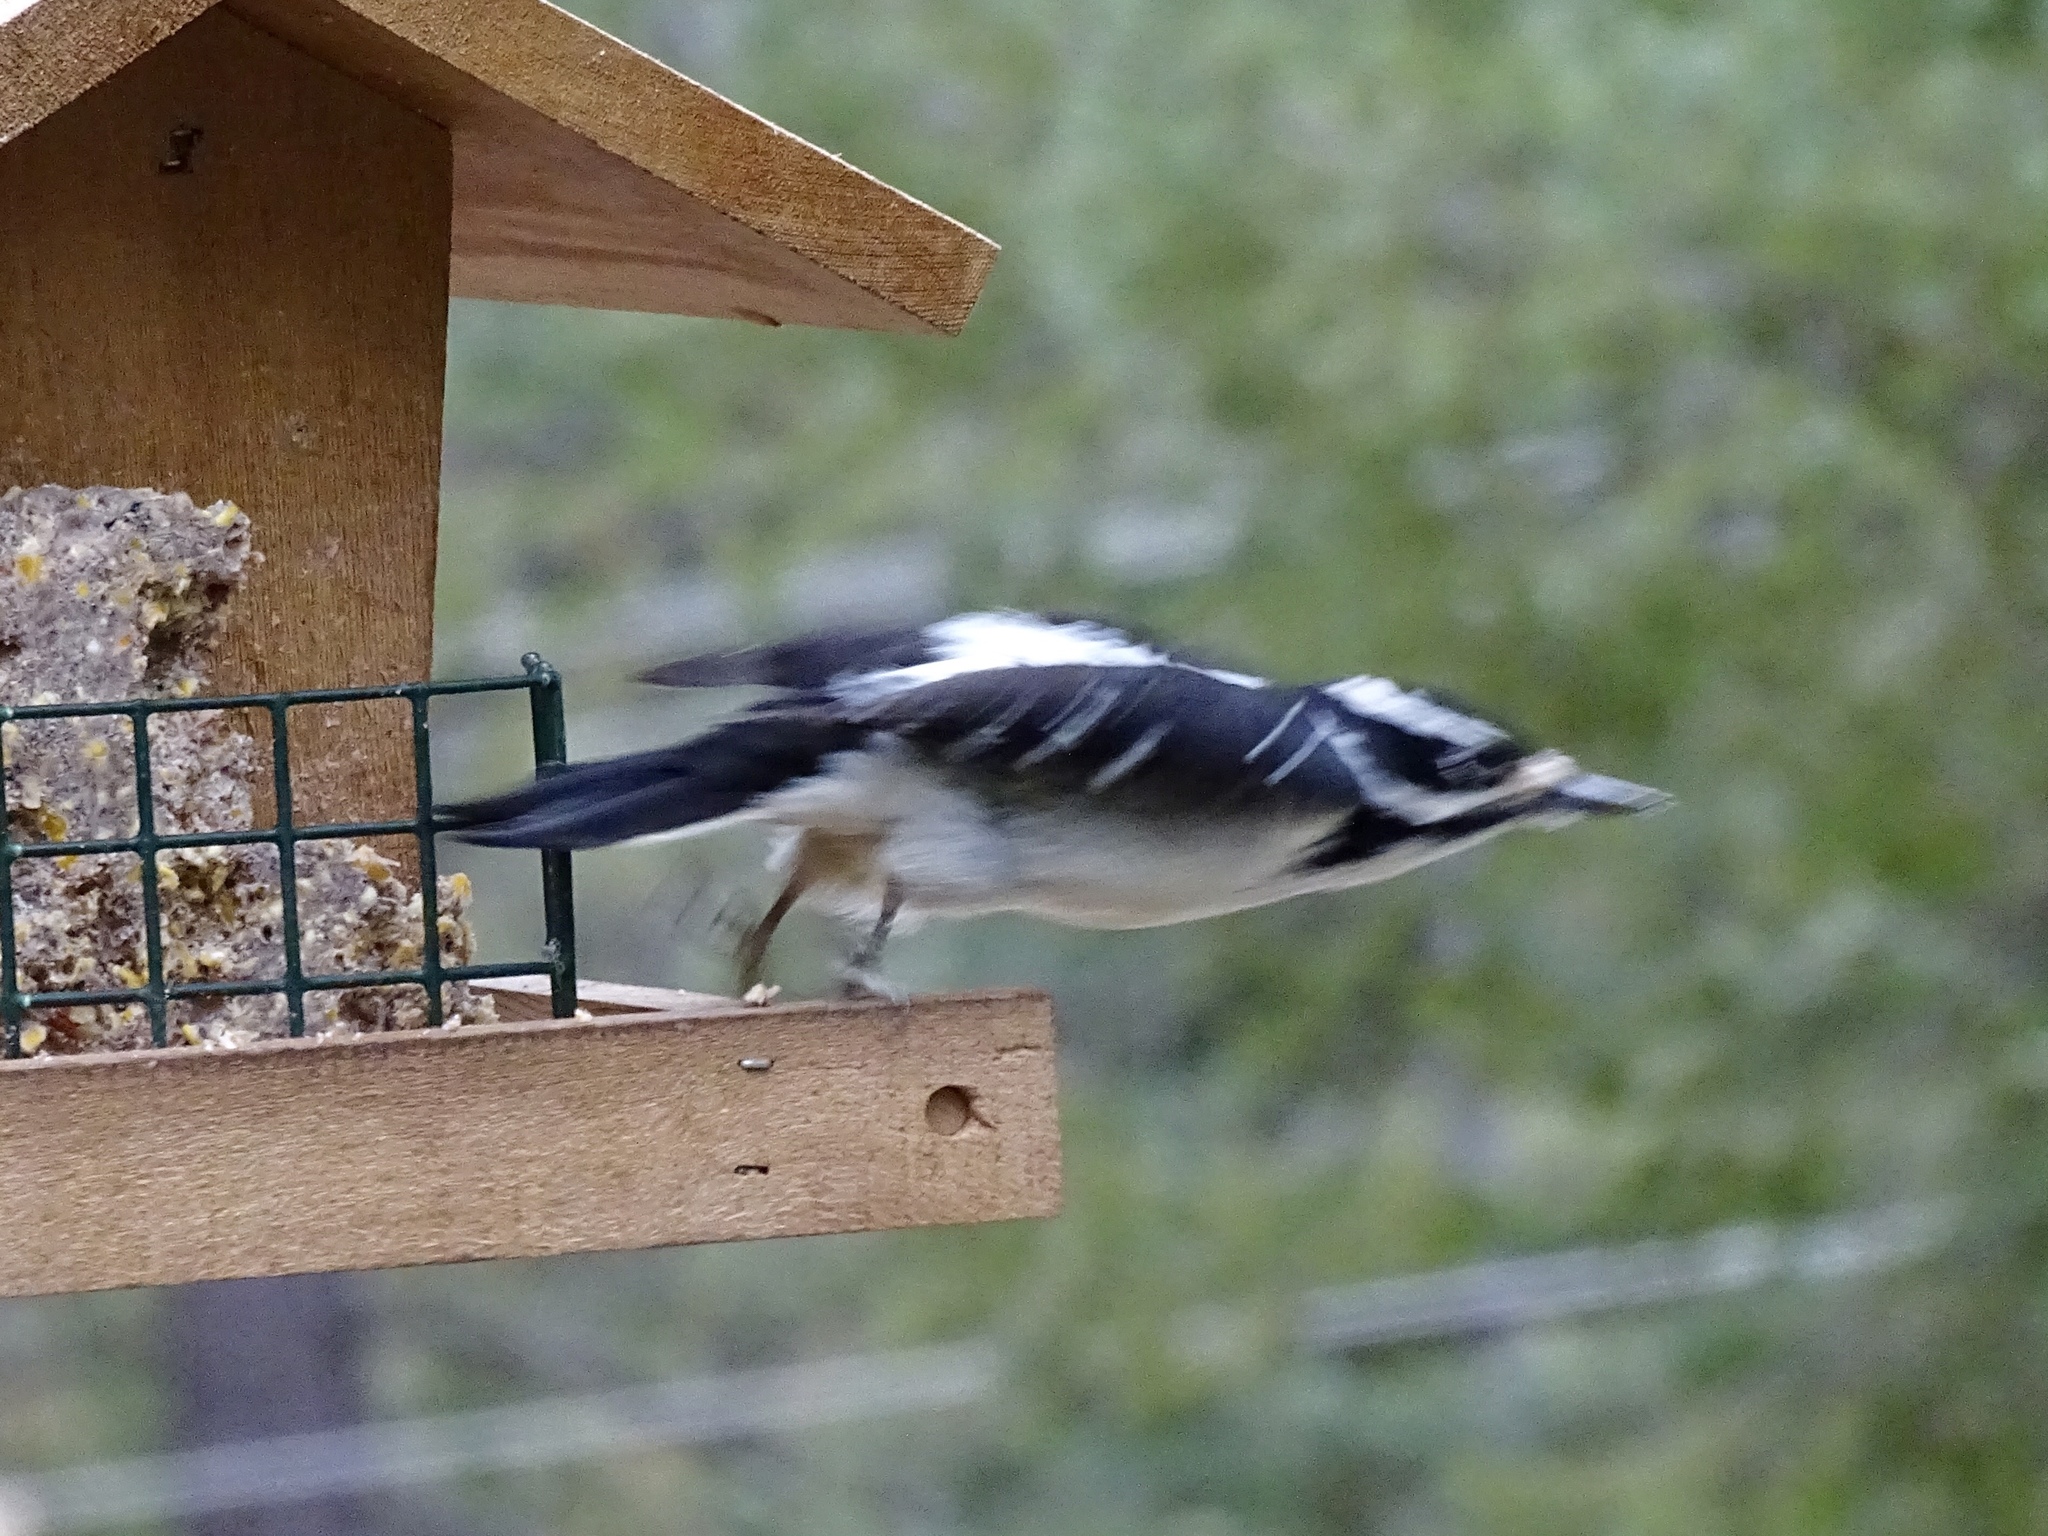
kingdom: Animalia
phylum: Chordata
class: Aves
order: Piciformes
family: Picidae
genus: Leuconotopicus
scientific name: Leuconotopicus villosus
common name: Hairy woodpecker
